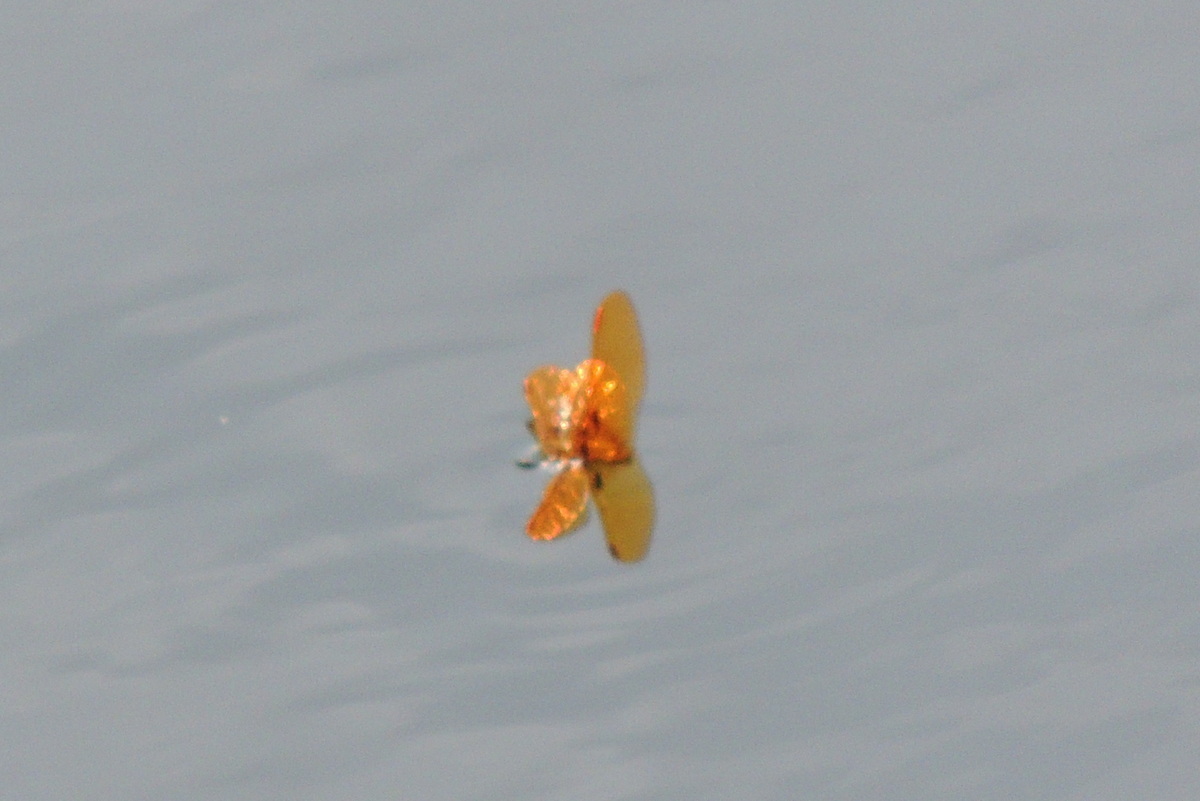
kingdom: Animalia
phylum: Arthropoda
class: Insecta
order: Odonata
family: Libellulidae
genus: Perithemis
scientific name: Perithemis tenera
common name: Eastern amberwing
